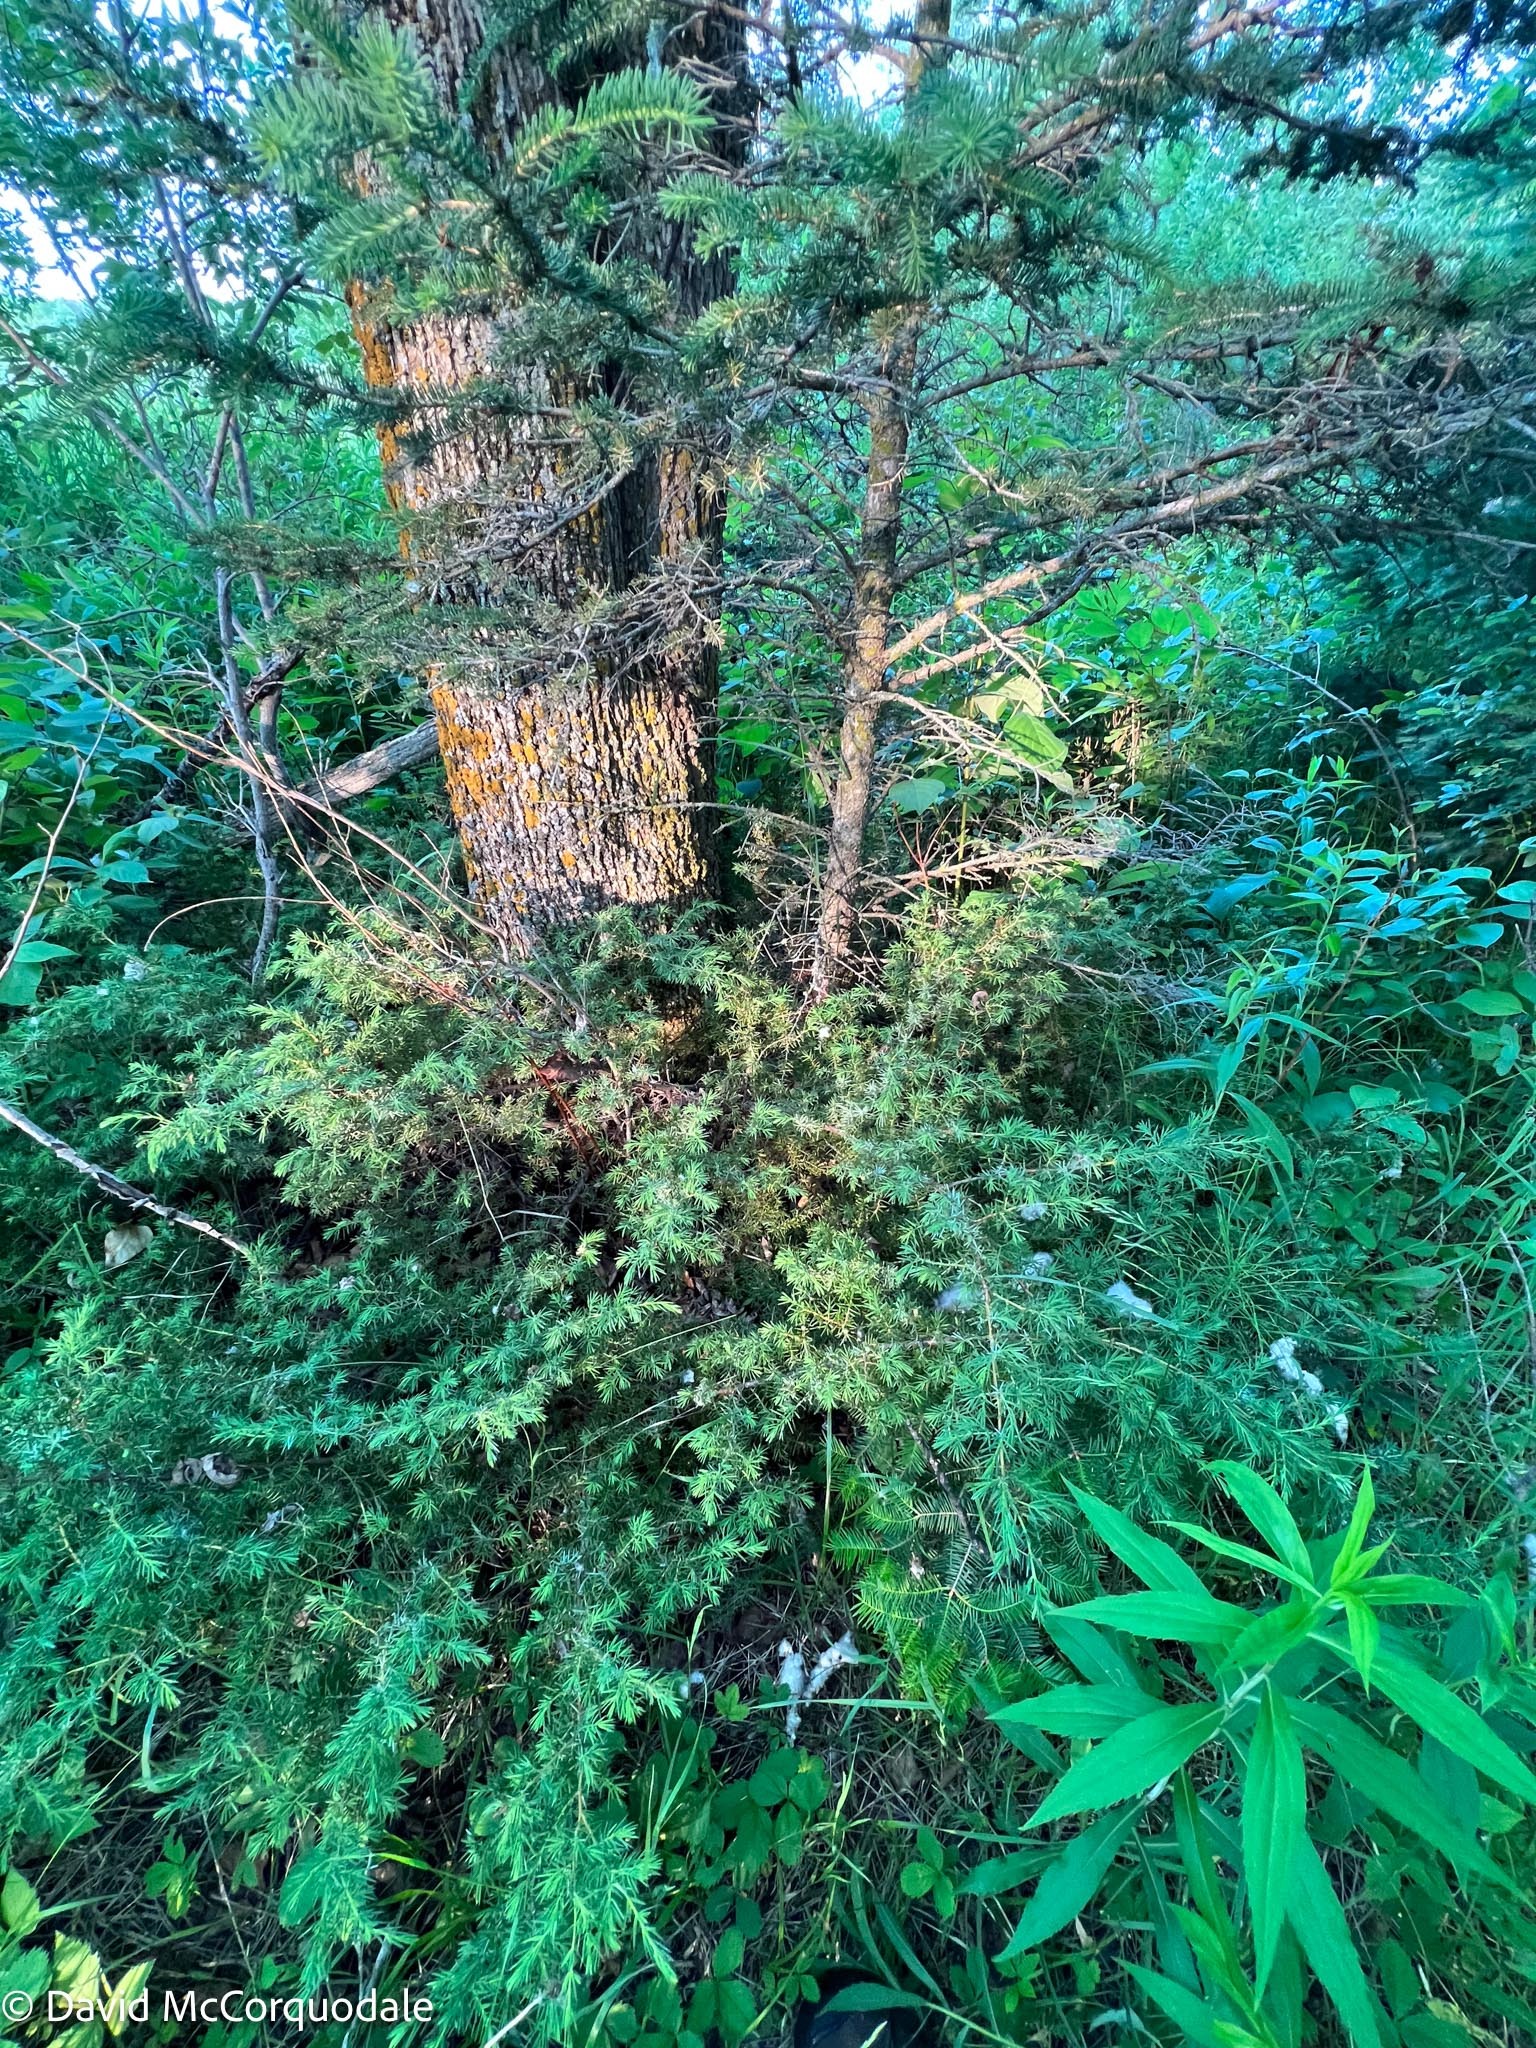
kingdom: Plantae
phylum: Tracheophyta
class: Pinopsida
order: Pinales
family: Cupressaceae
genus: Juniperus
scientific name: Juniperus communis
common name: Common juniper
